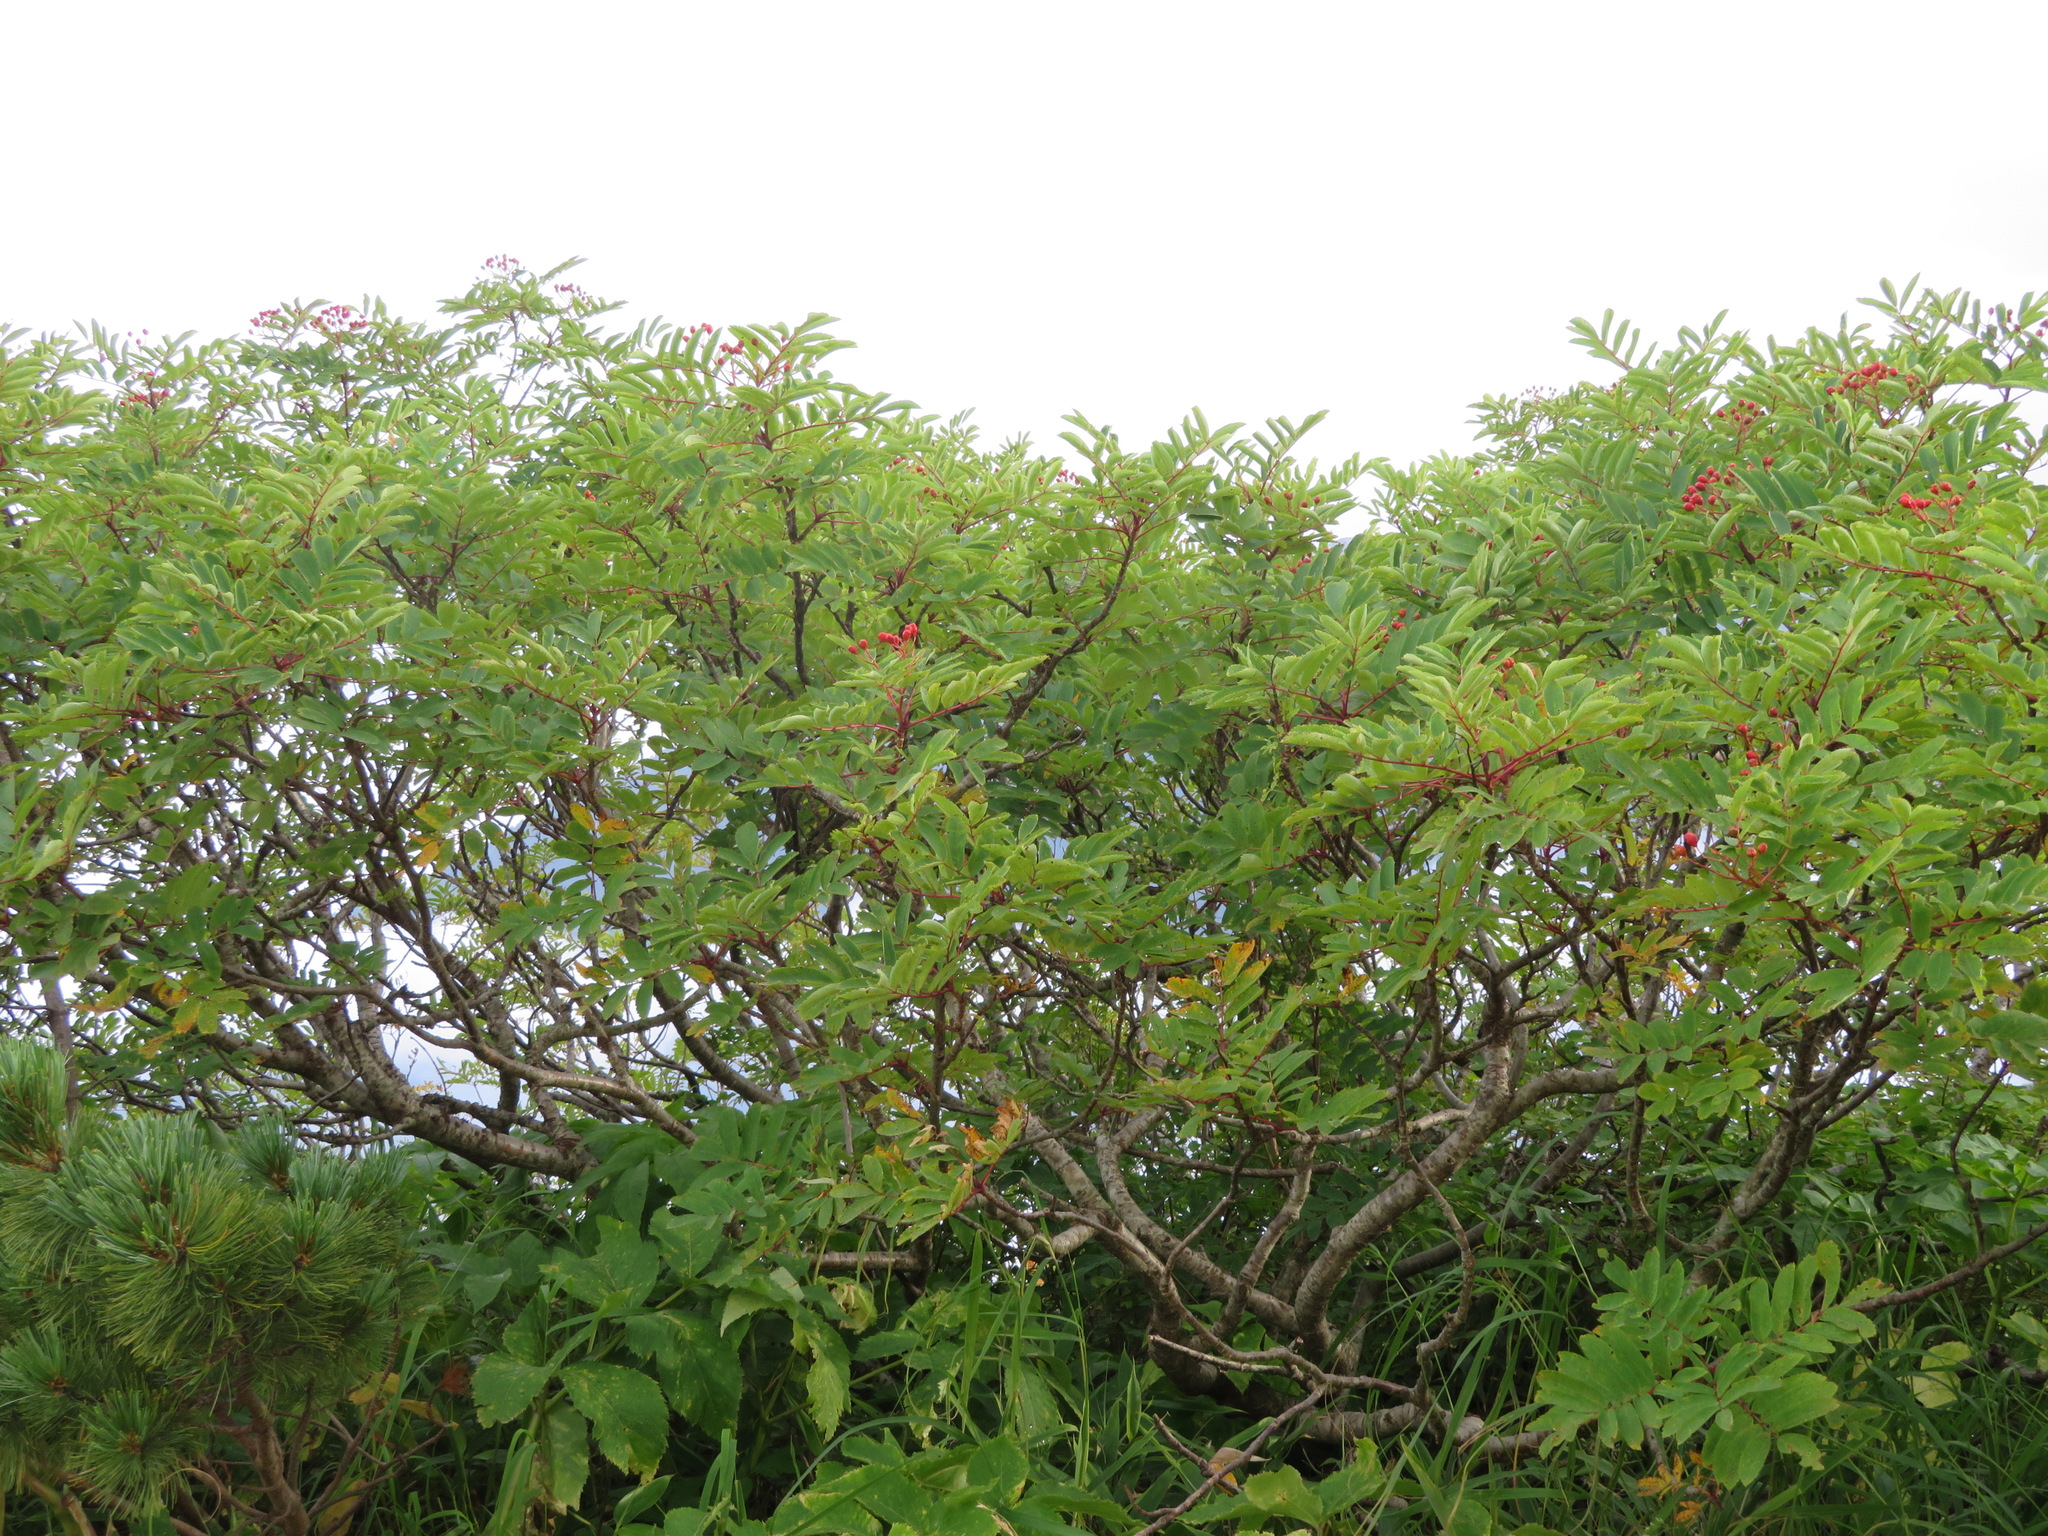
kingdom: Plantae
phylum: Tracheophyta
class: Magnoliopsida
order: Rosales
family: Rosaceae
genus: Sorbus
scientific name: Sorbus matsumurana
